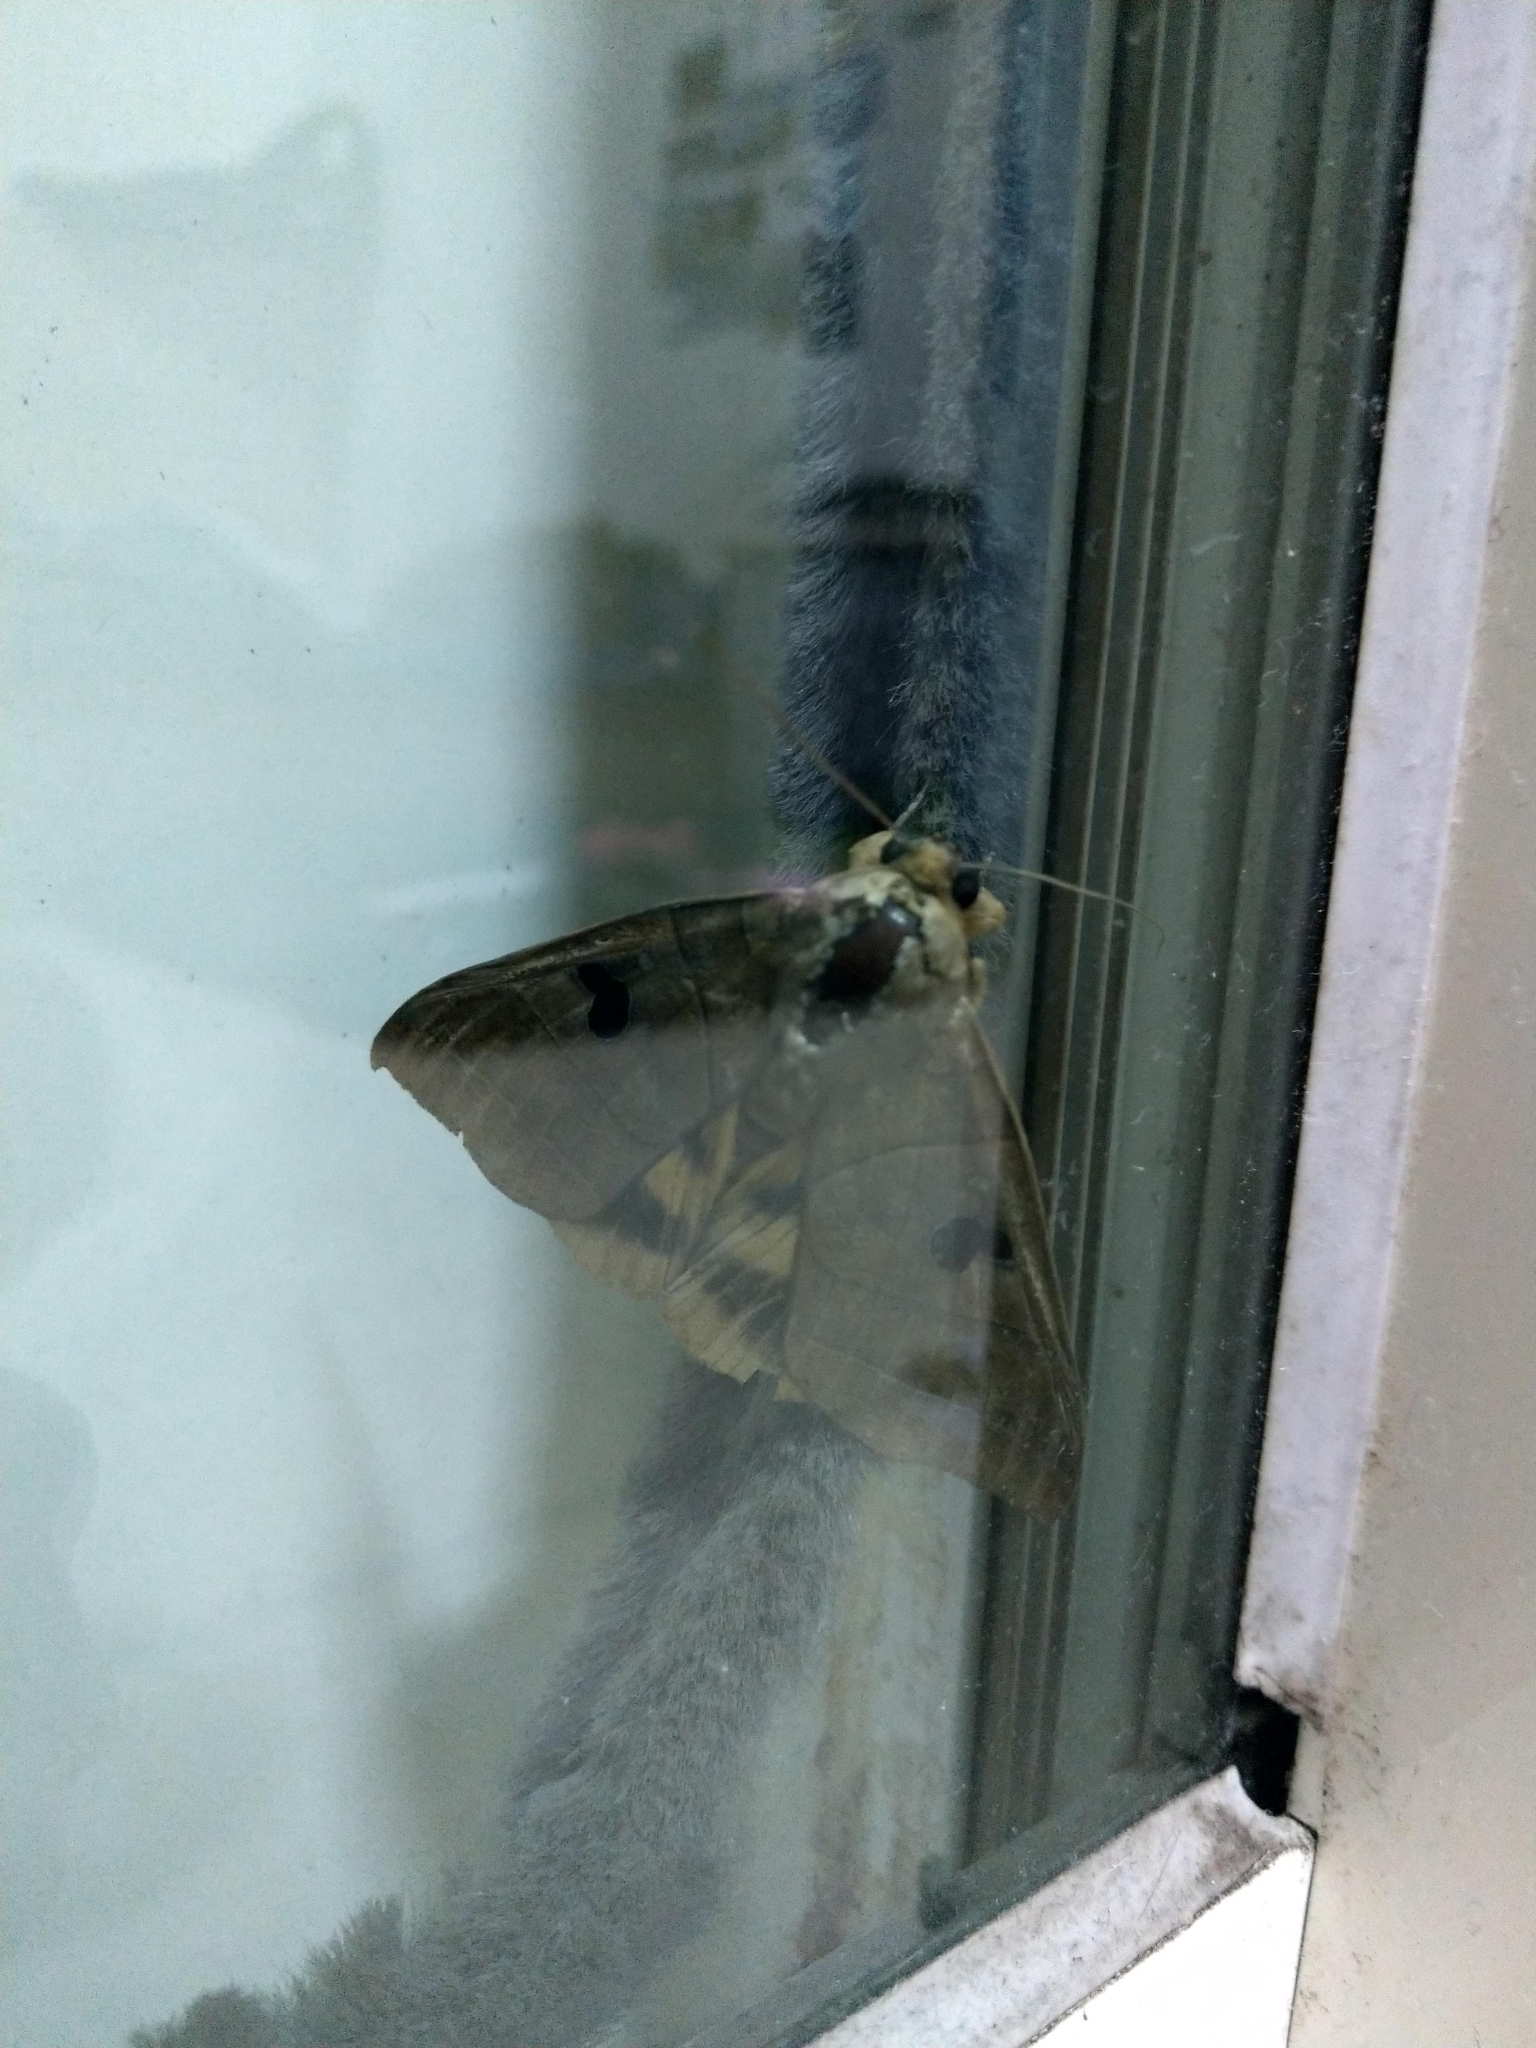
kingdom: Animalia
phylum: Arthropoda
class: Insecta
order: Lepidoptera
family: Erebidae
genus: Thyas
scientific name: Thyas coronata
